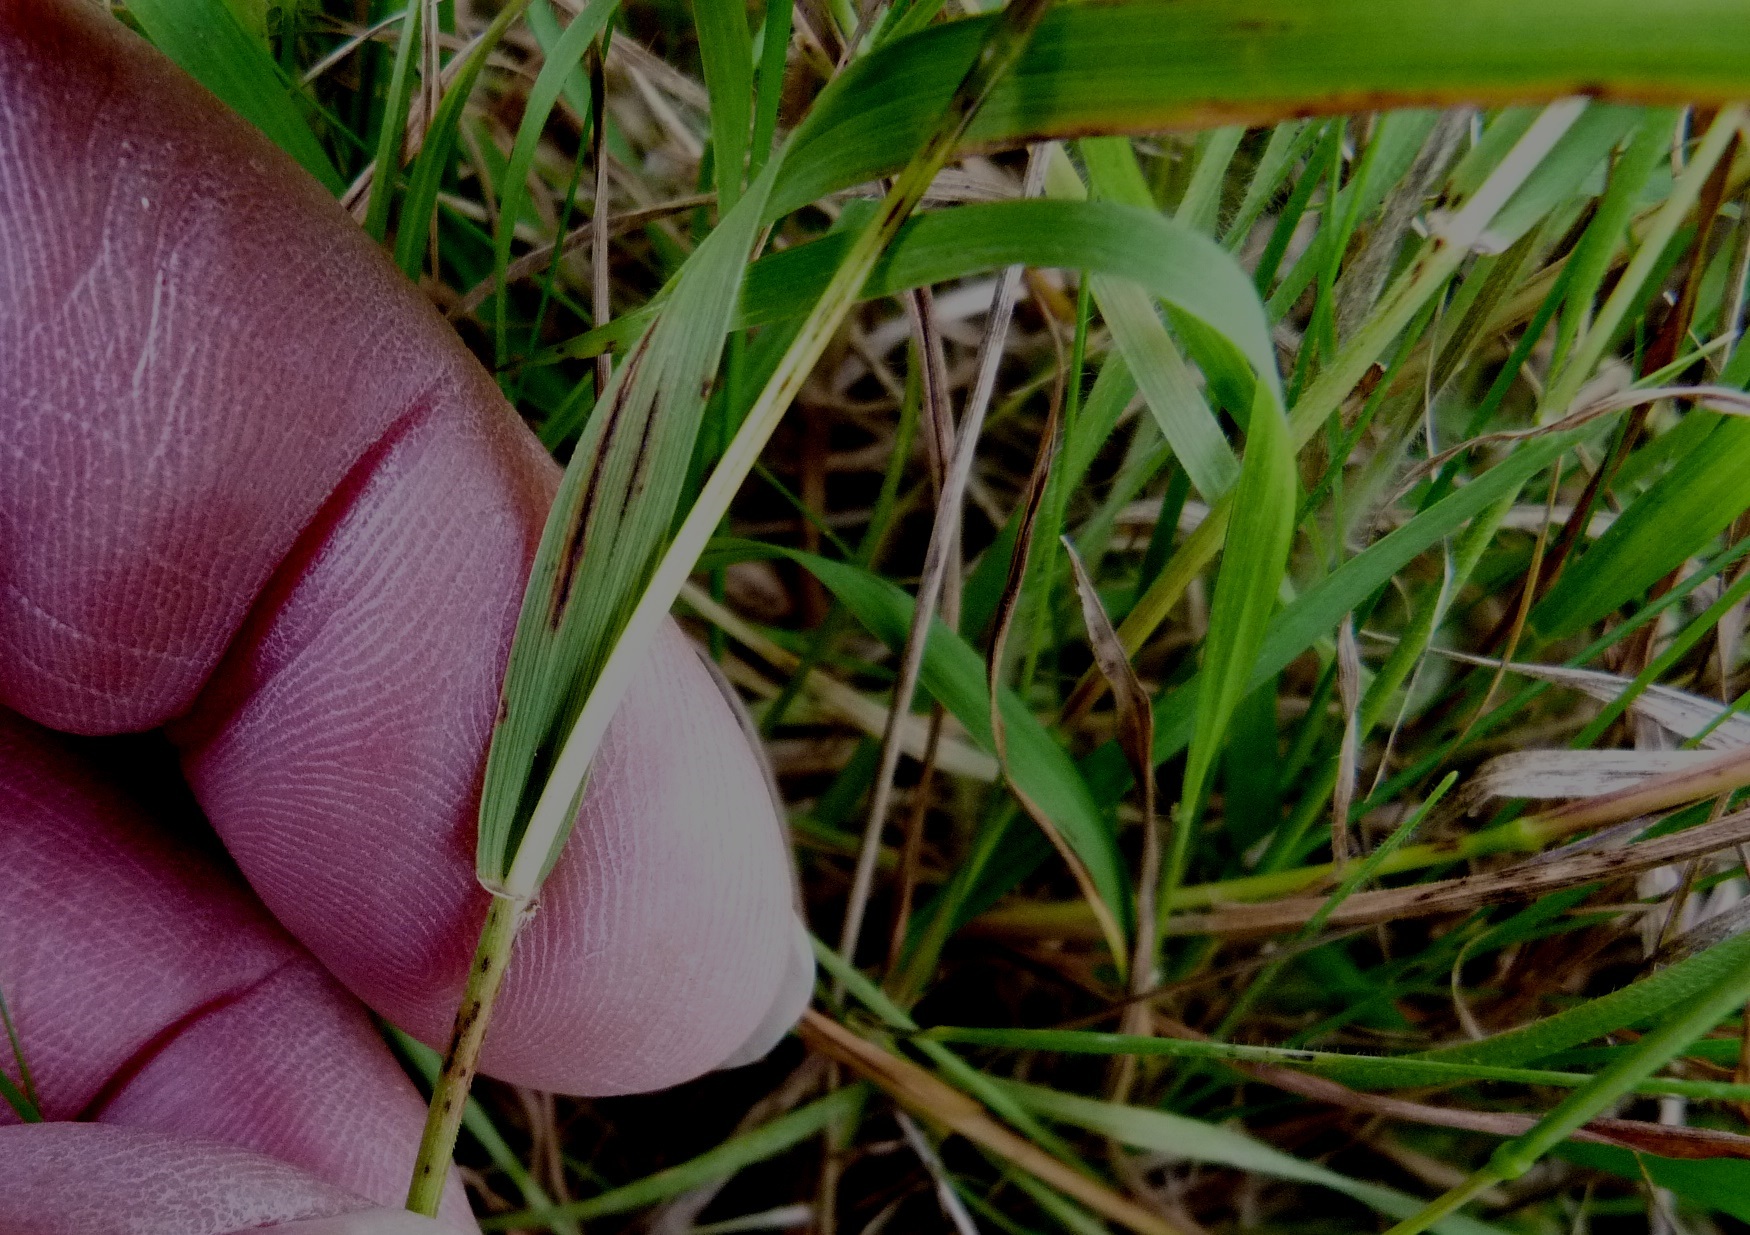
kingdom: Plantae
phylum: Tracheophyta
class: Liliopsida
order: Poales
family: Poaceae
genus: Microlaena
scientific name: Microlaena stipoides
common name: Meadow ricegrass
